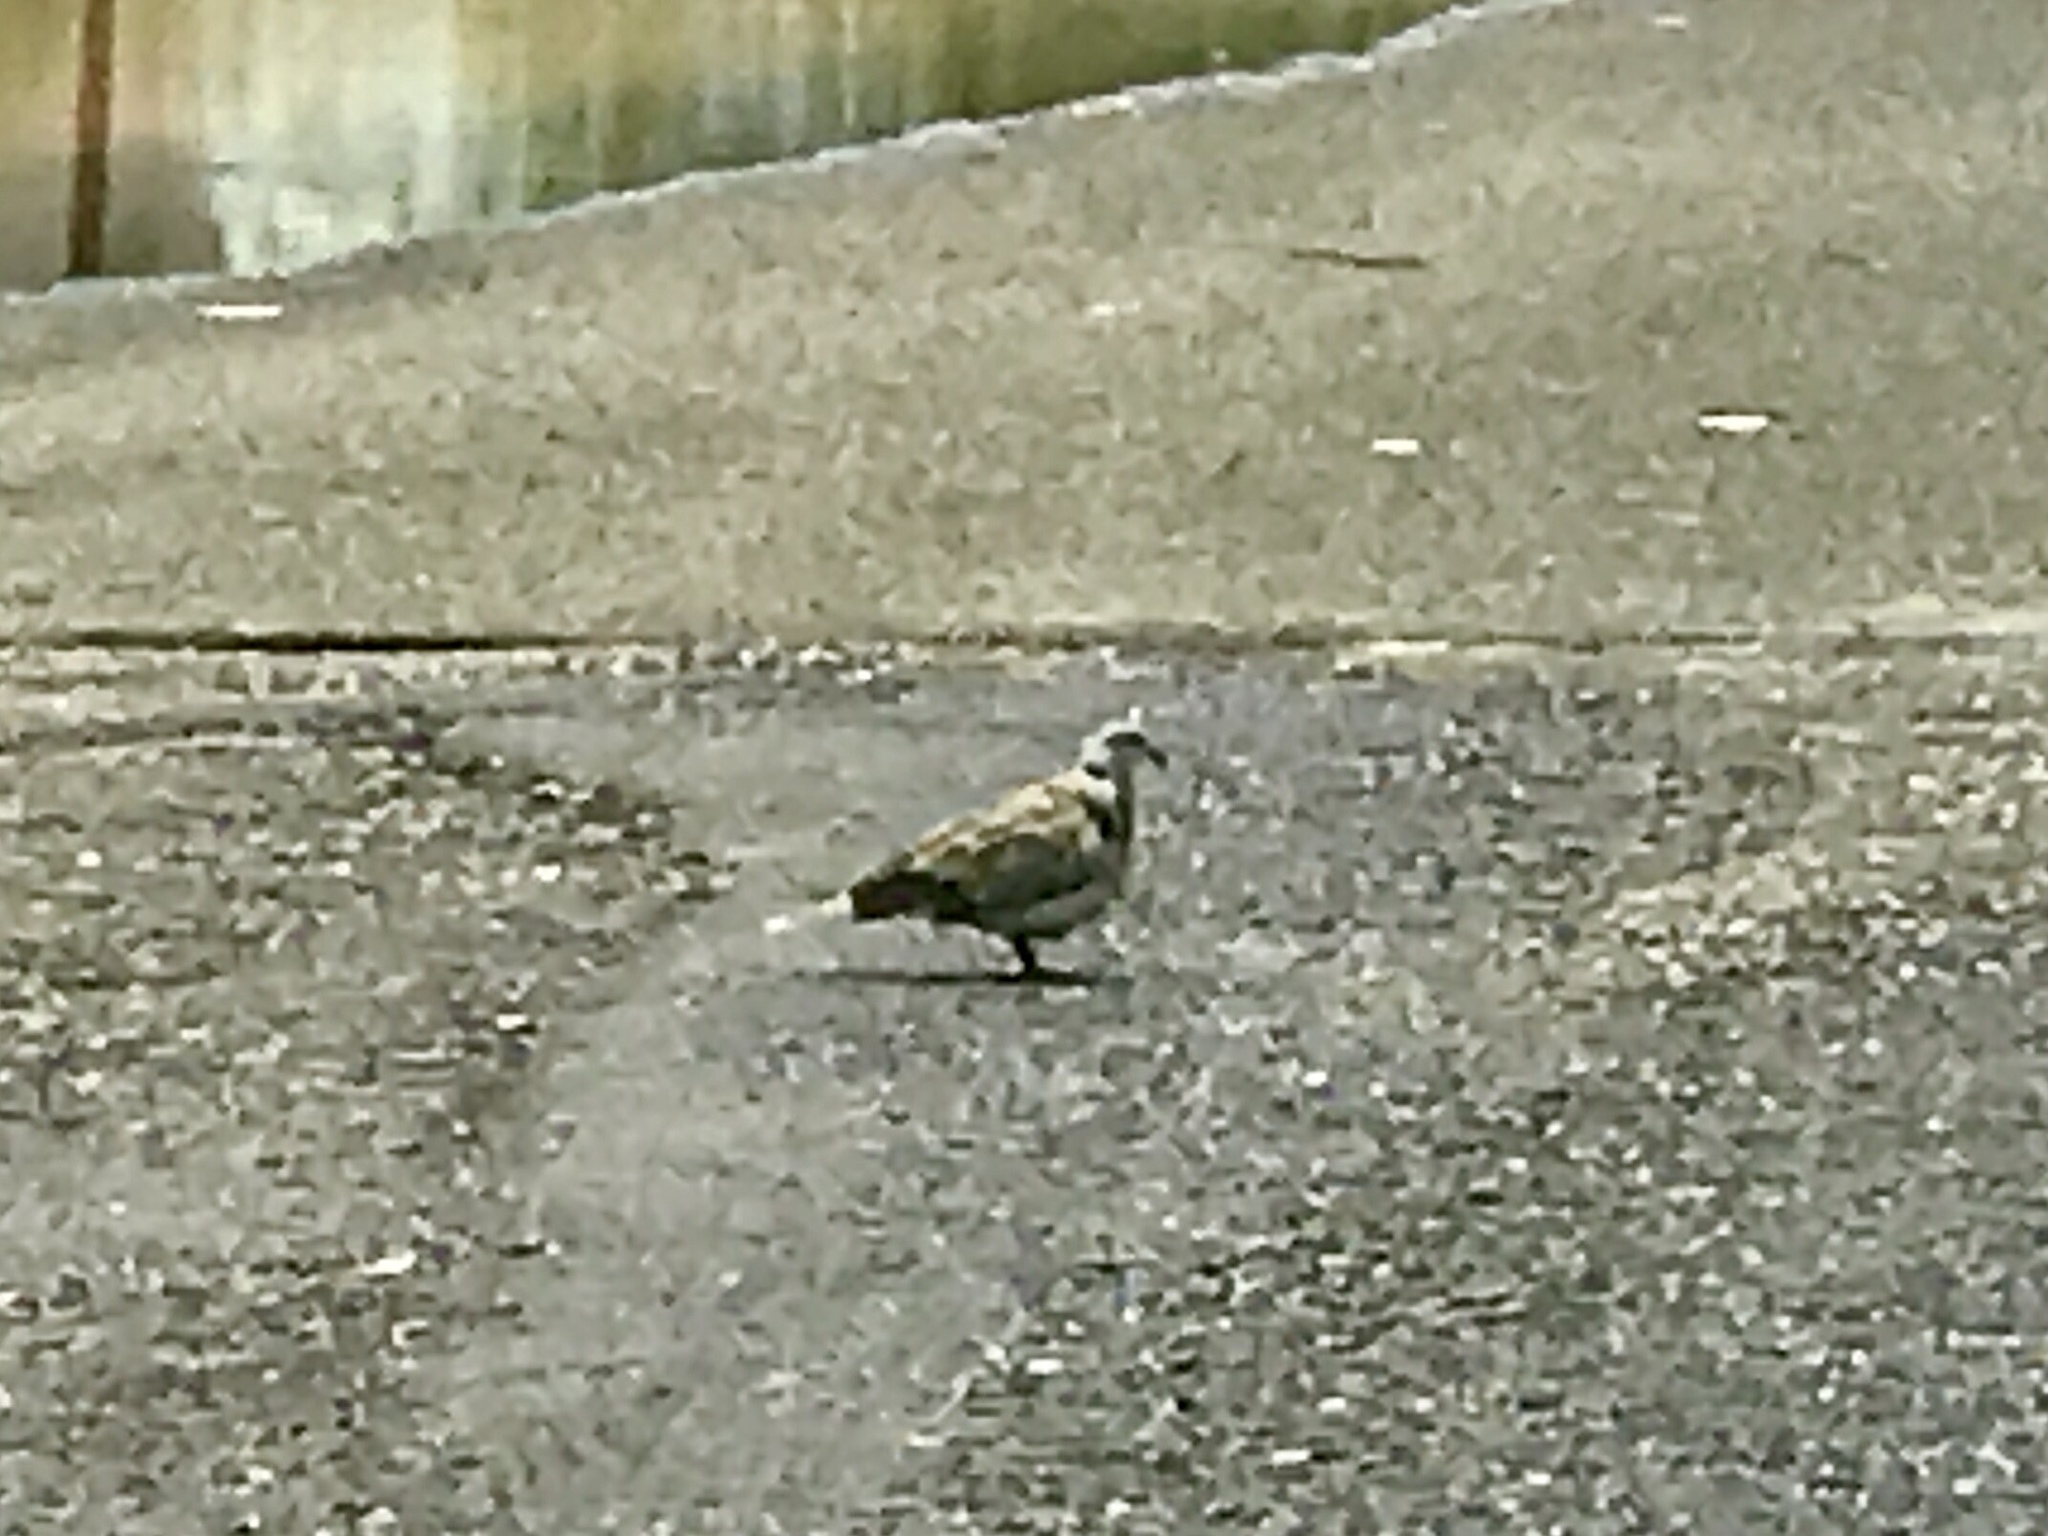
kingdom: Animalia
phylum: Chordata
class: Aves
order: Columbiformes
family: Columbidae
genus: Streptopelia
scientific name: Streptopelia decaocto
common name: Eurasian collared dove
